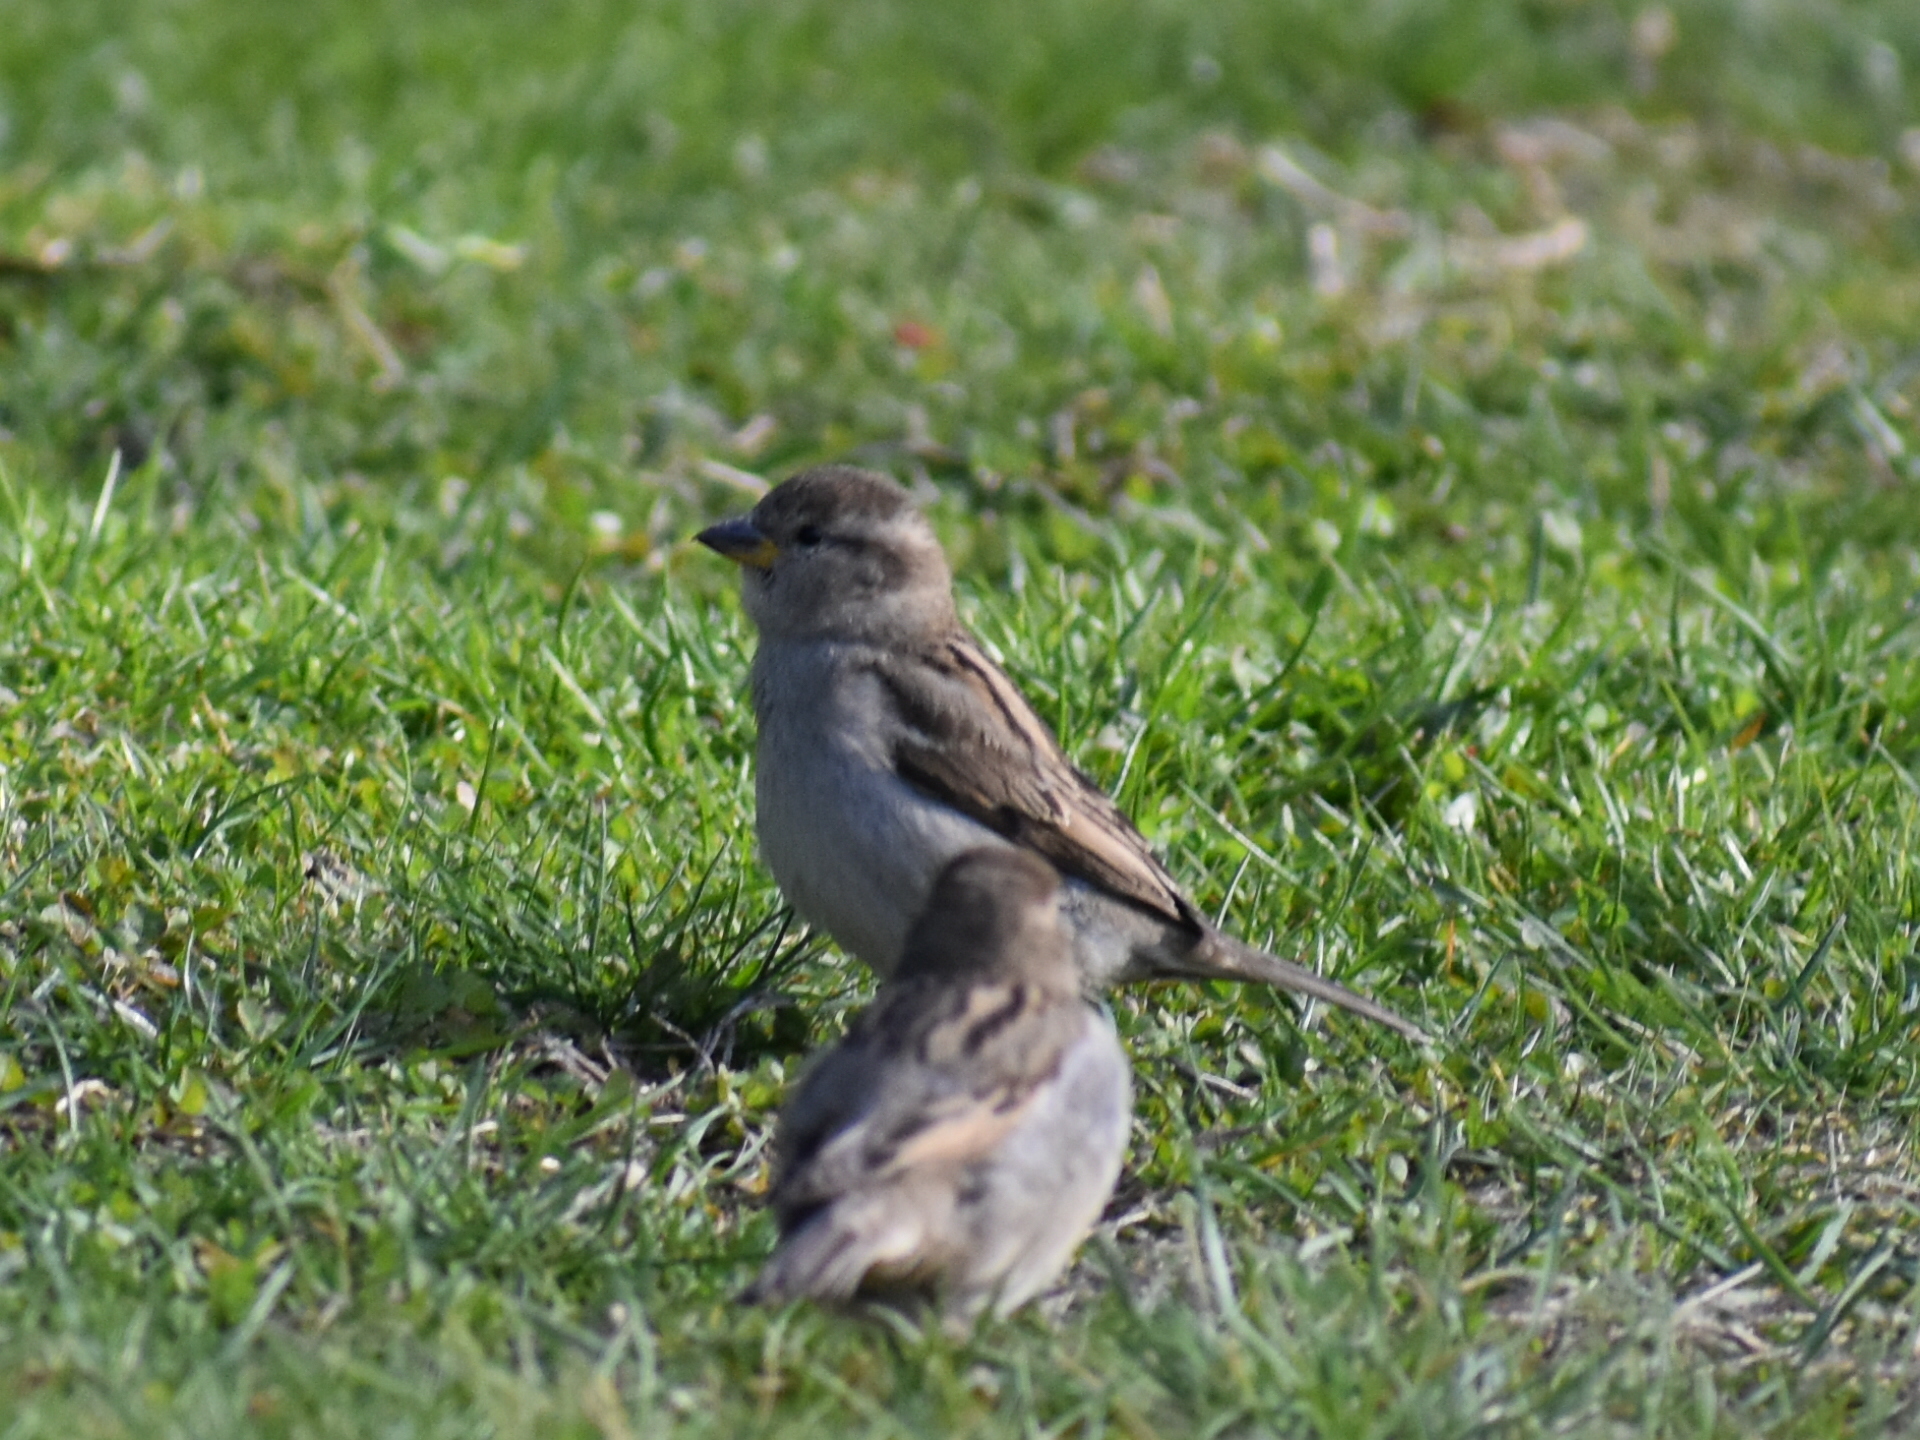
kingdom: Animalia
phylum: Chordata
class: Aves
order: Passeriformes
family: Passeridae
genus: Passer
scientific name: Passer domesticus
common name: House sparrow
